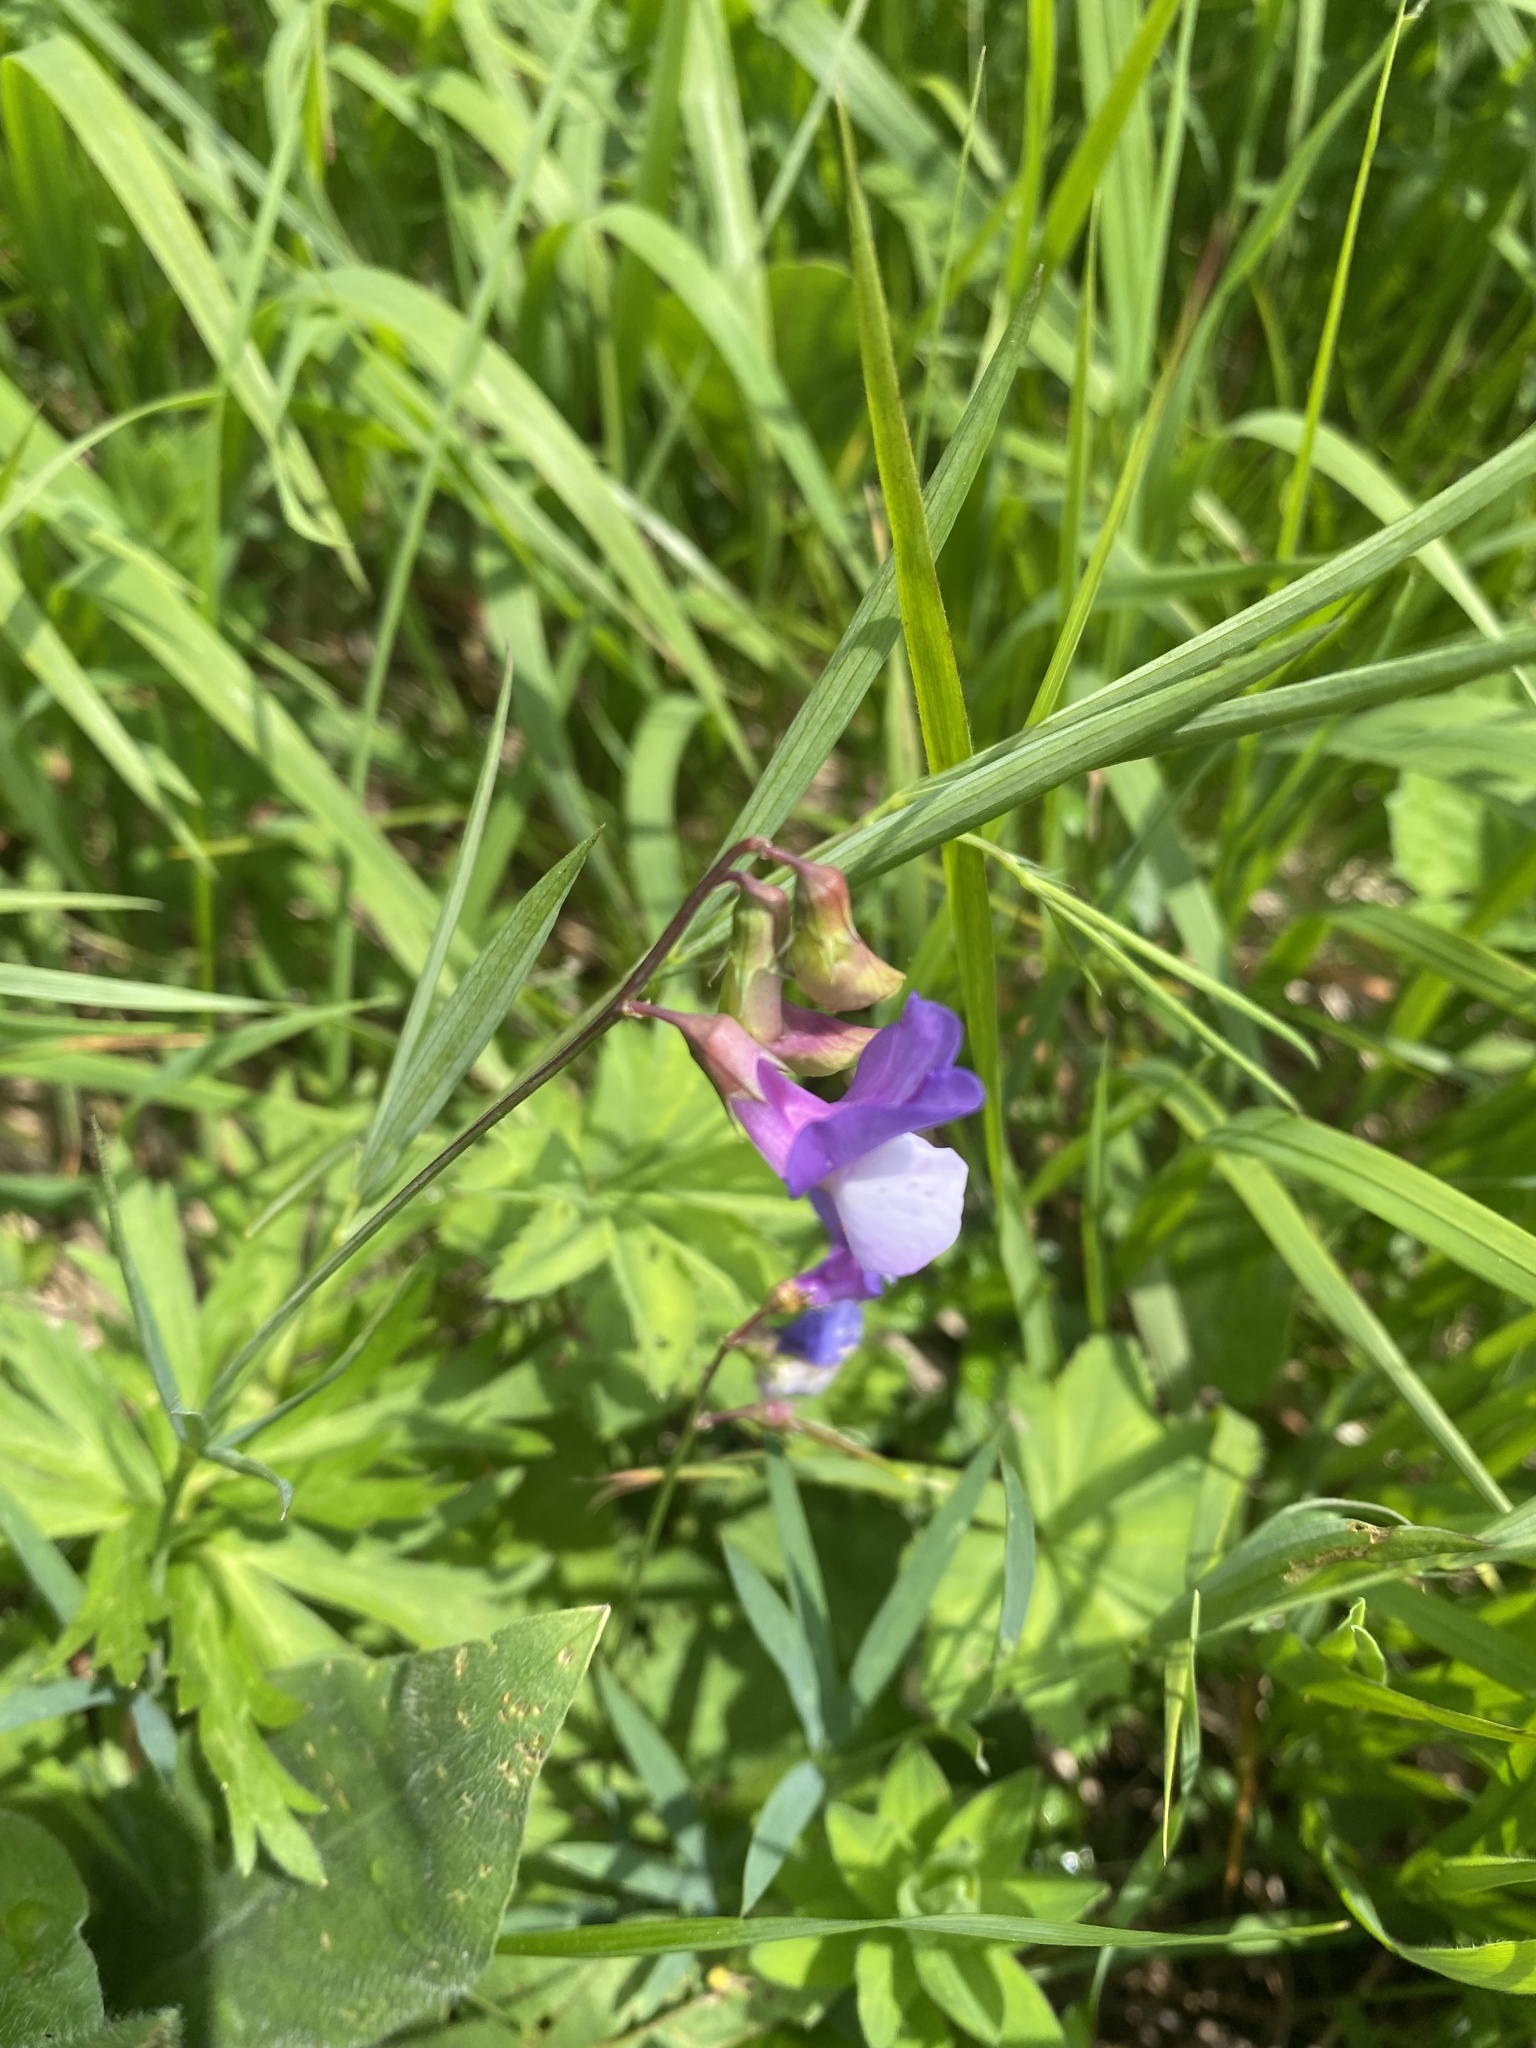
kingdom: Plantae
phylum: Tracheophyta
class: Magnoliopsida
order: Fabales
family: Fabaceae
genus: Lathyrus
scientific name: Lathyrus cyaneus
